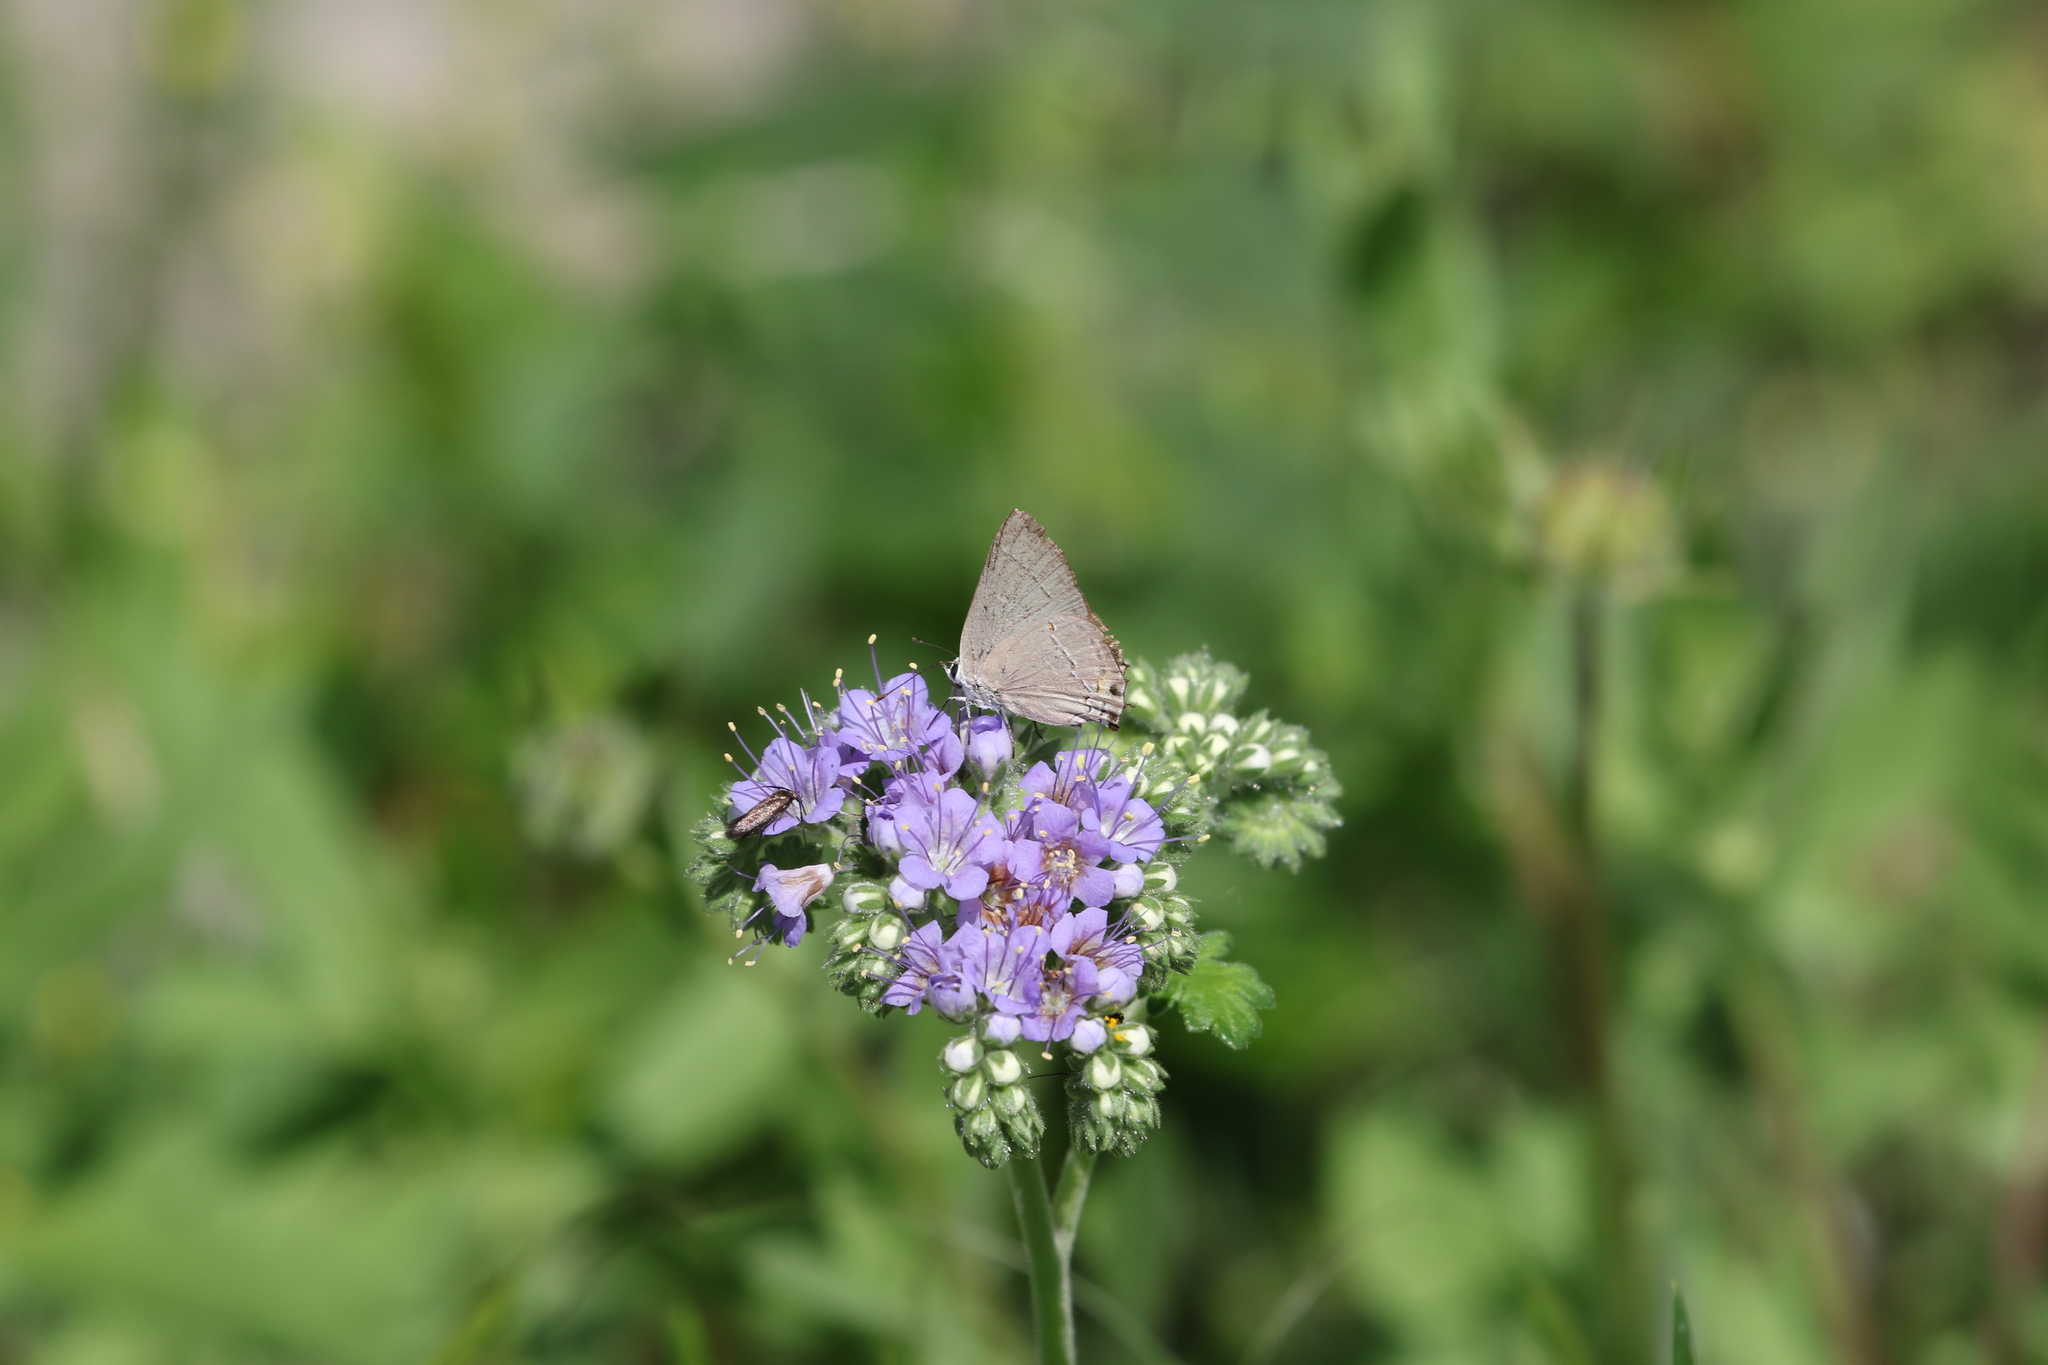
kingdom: Animalia
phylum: Arthropoda
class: Insecta
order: Lepidoptera
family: Lycaenidae
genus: Strymon
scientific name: Strymon melinus
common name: Gray hairstreak
